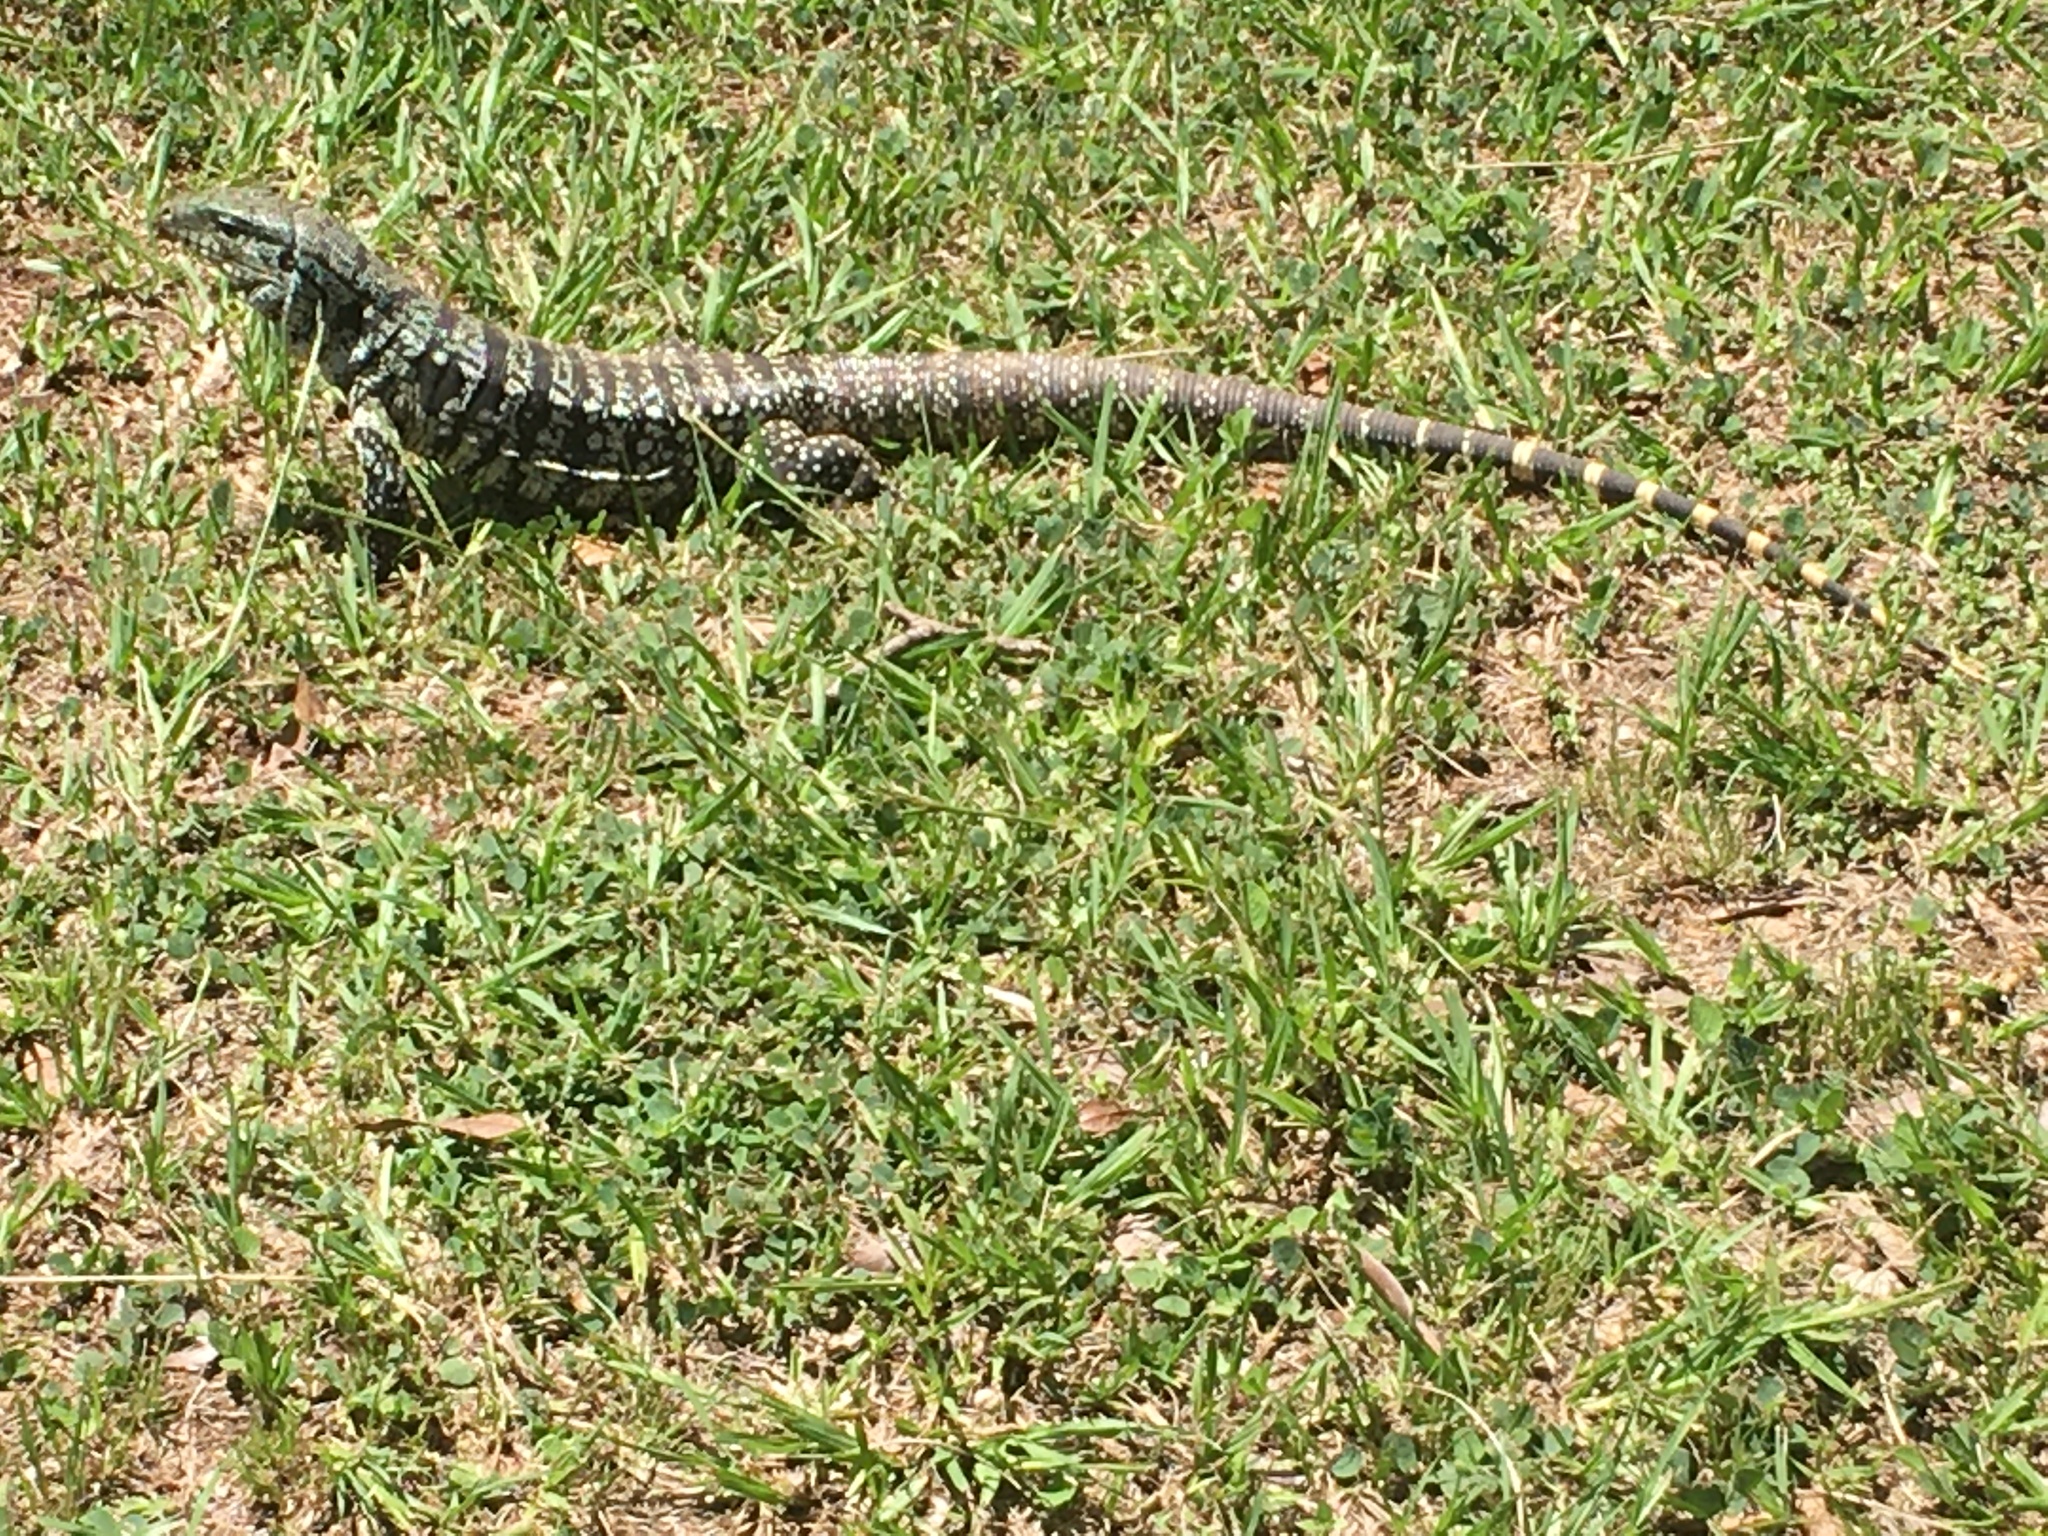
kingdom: Animalia
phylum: Chordata
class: Squamata
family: Teiidae
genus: Salvator
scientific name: Salvator merianae
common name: Argentine black and white tegu
